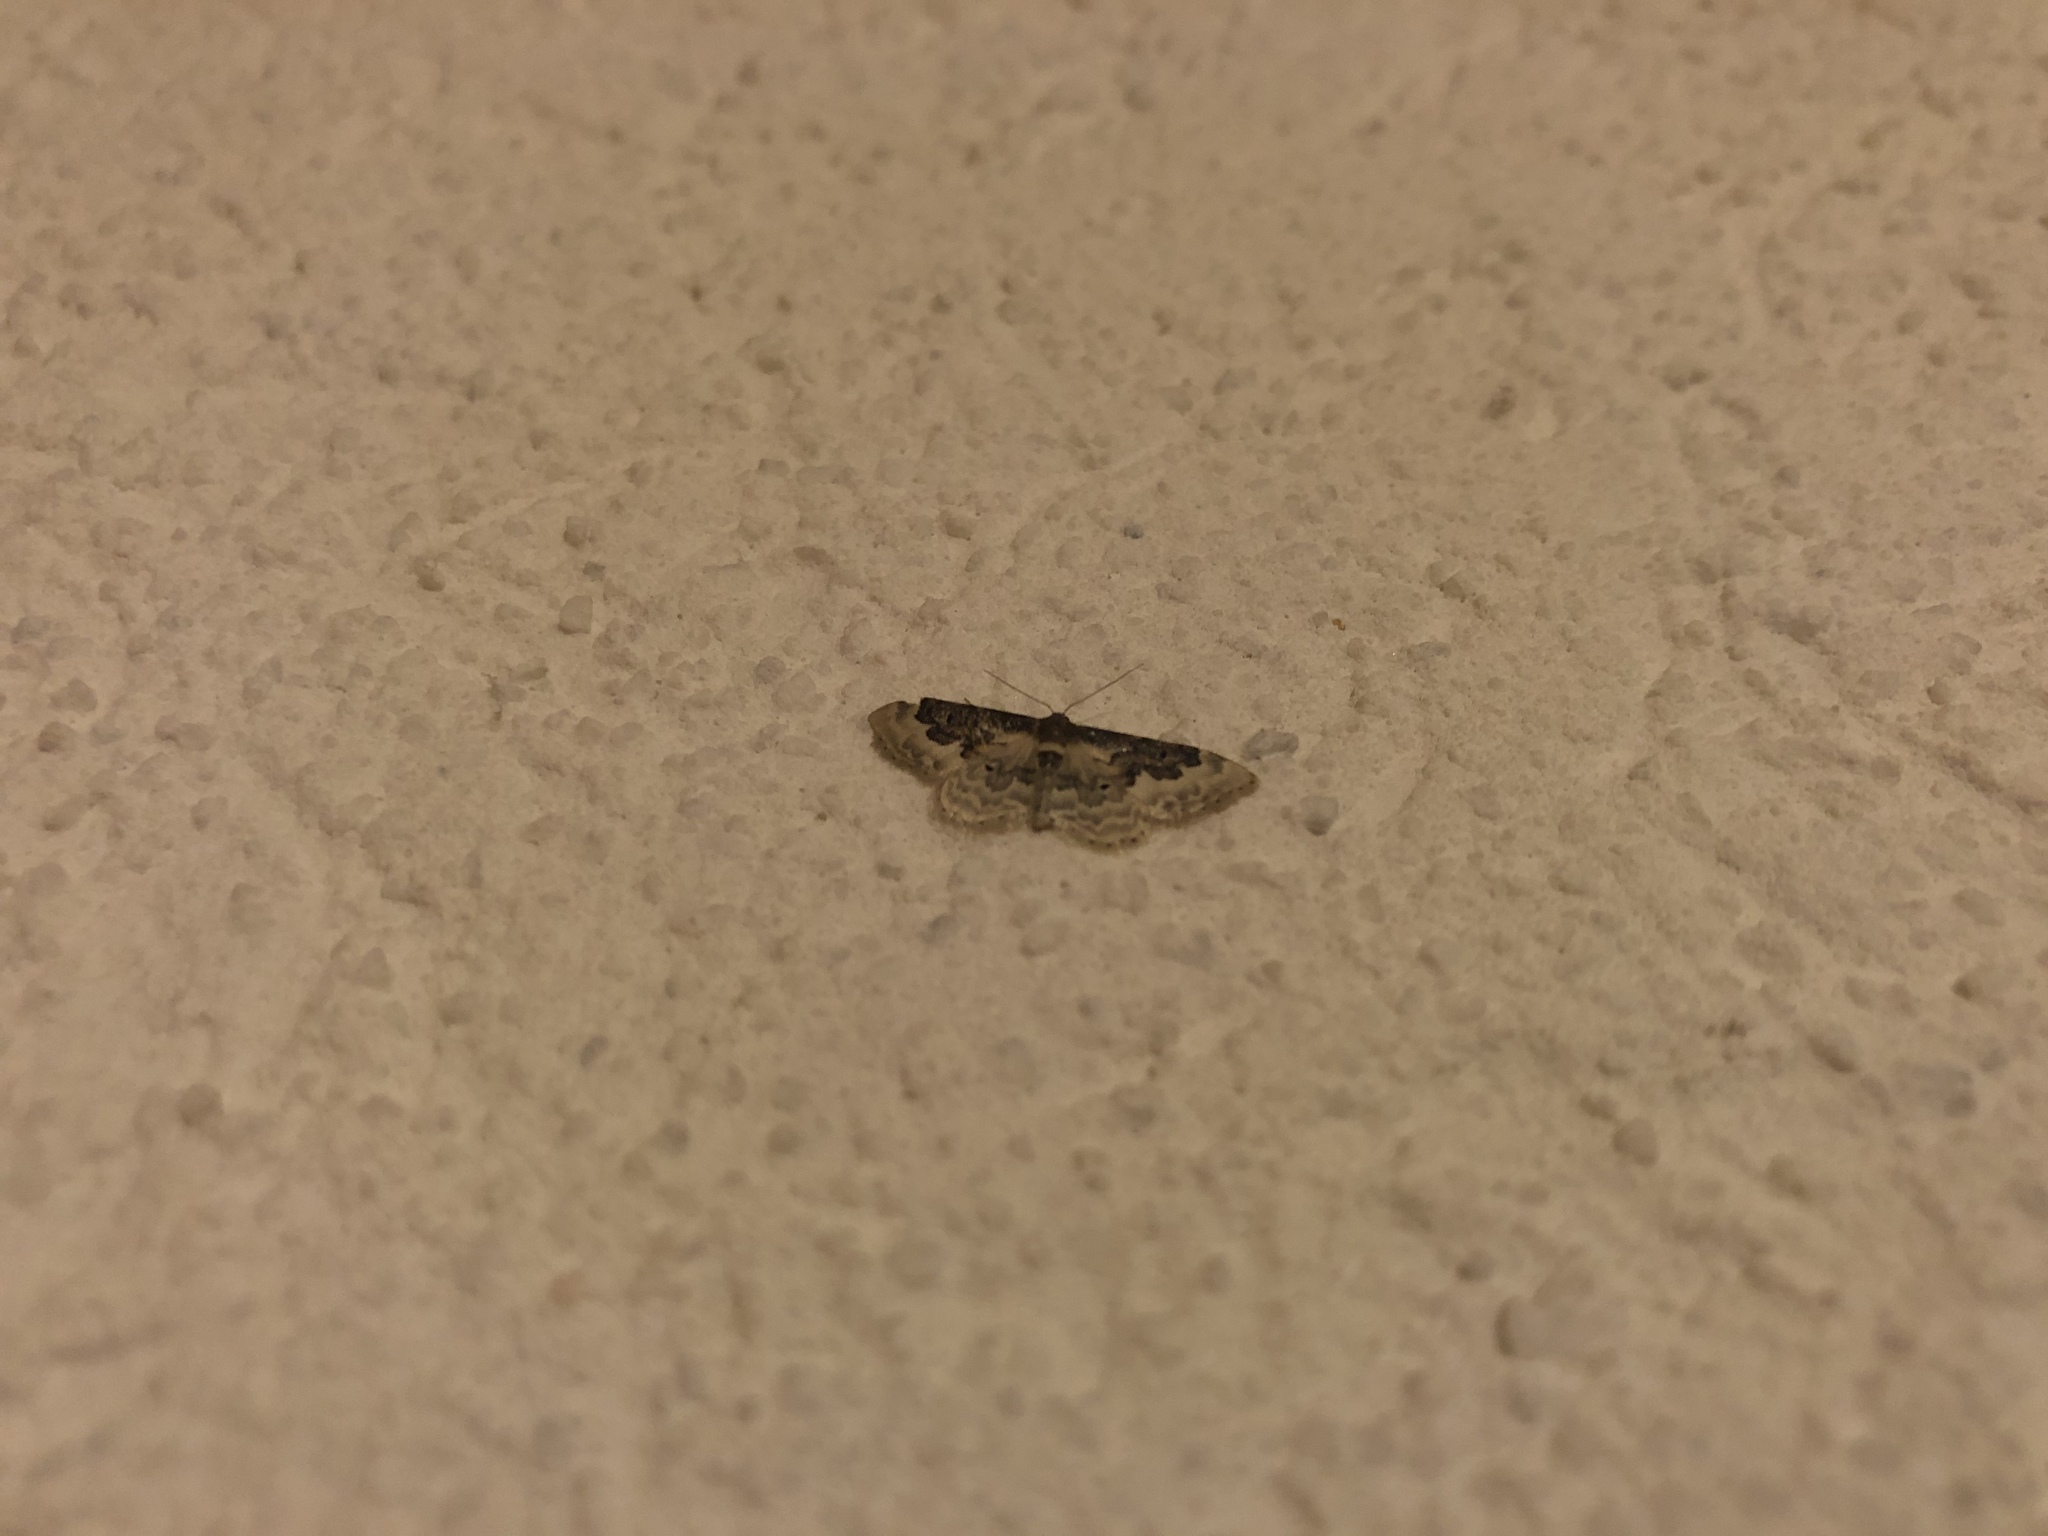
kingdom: Animalia
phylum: Arthropoda
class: Insecta
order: Lepidoptera
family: Geometridae
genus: Idaea
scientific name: Idaea rusticata
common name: Least carpet
